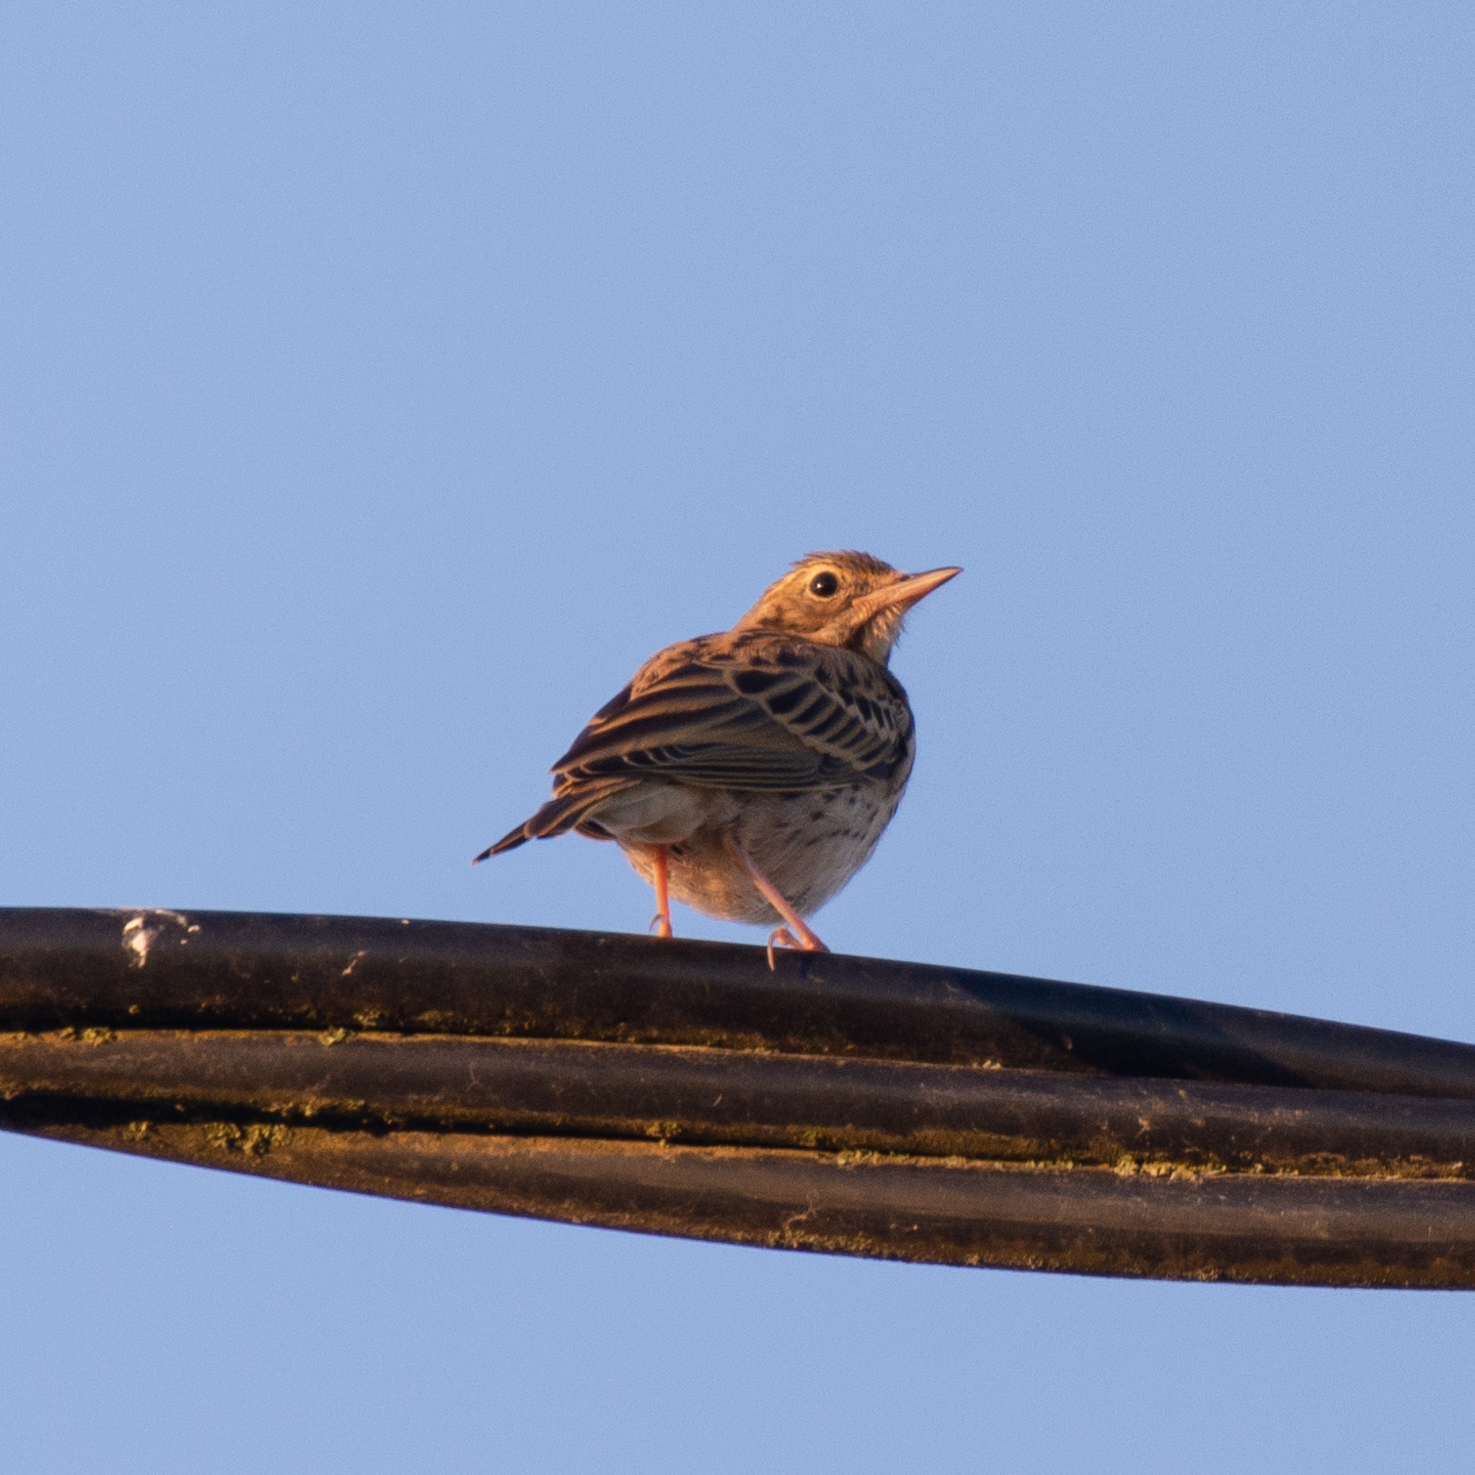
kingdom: Animalia
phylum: Chordata
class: Aves
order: Passeriformes
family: Motacillidae
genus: Anthus
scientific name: Anthus trivialis
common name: Tree pipit
